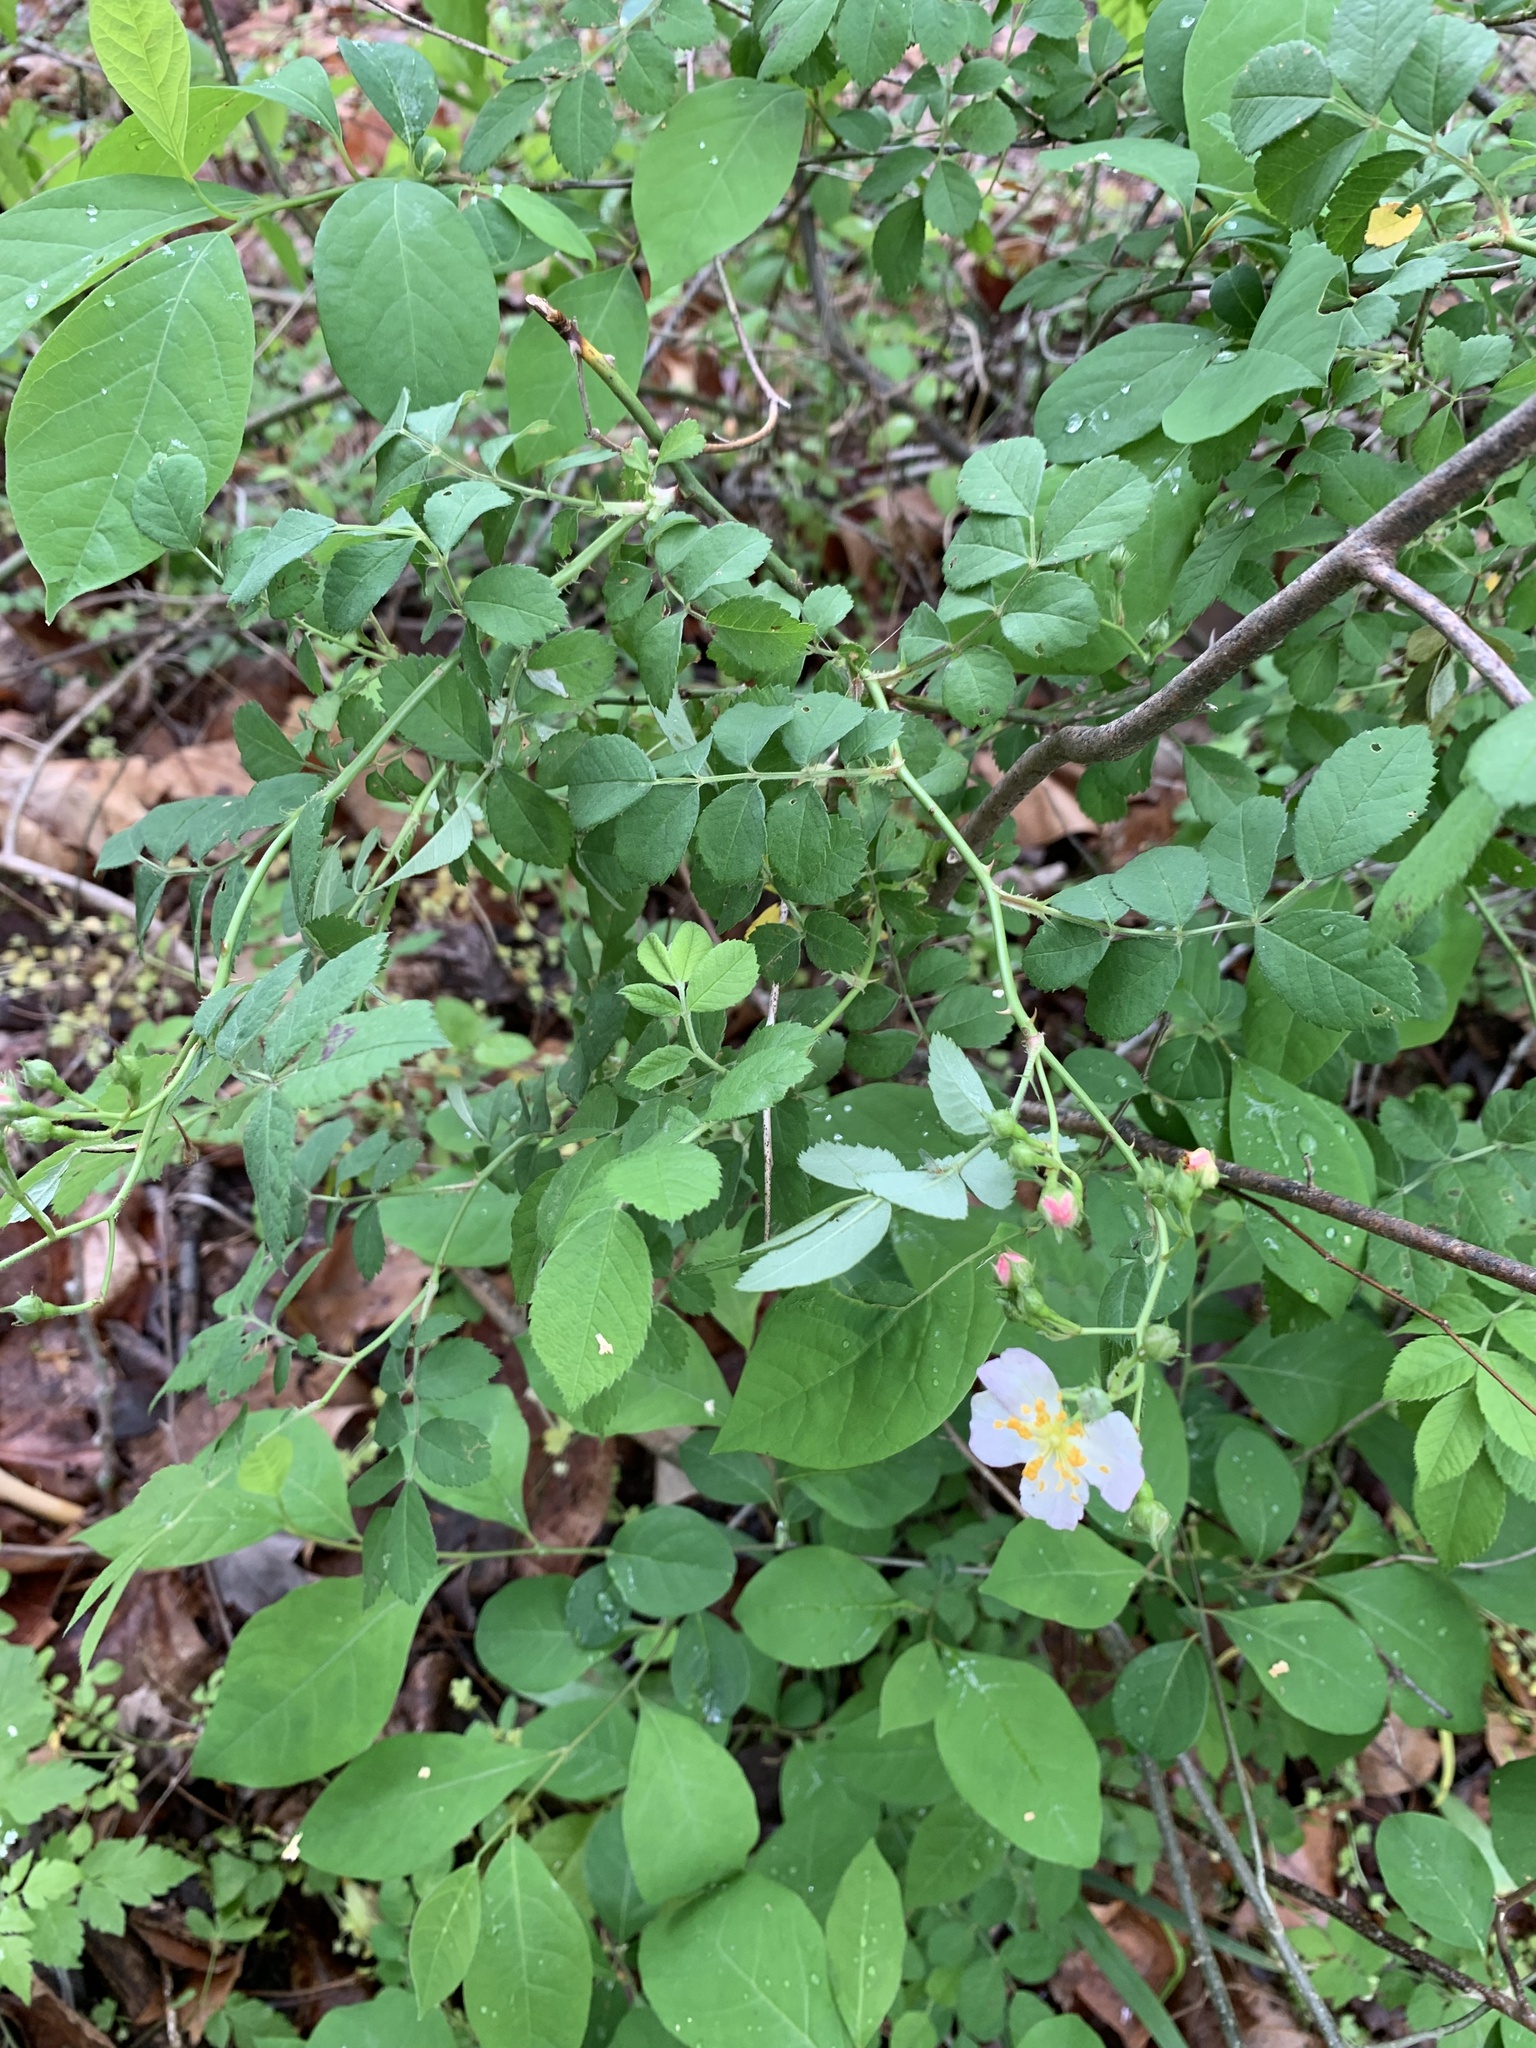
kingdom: Plantae
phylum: Tracheophyta
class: Magnoliopsida
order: Rosales
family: Rosaceae
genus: Rosa
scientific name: Rosa multiflora
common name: Multiflora rose
